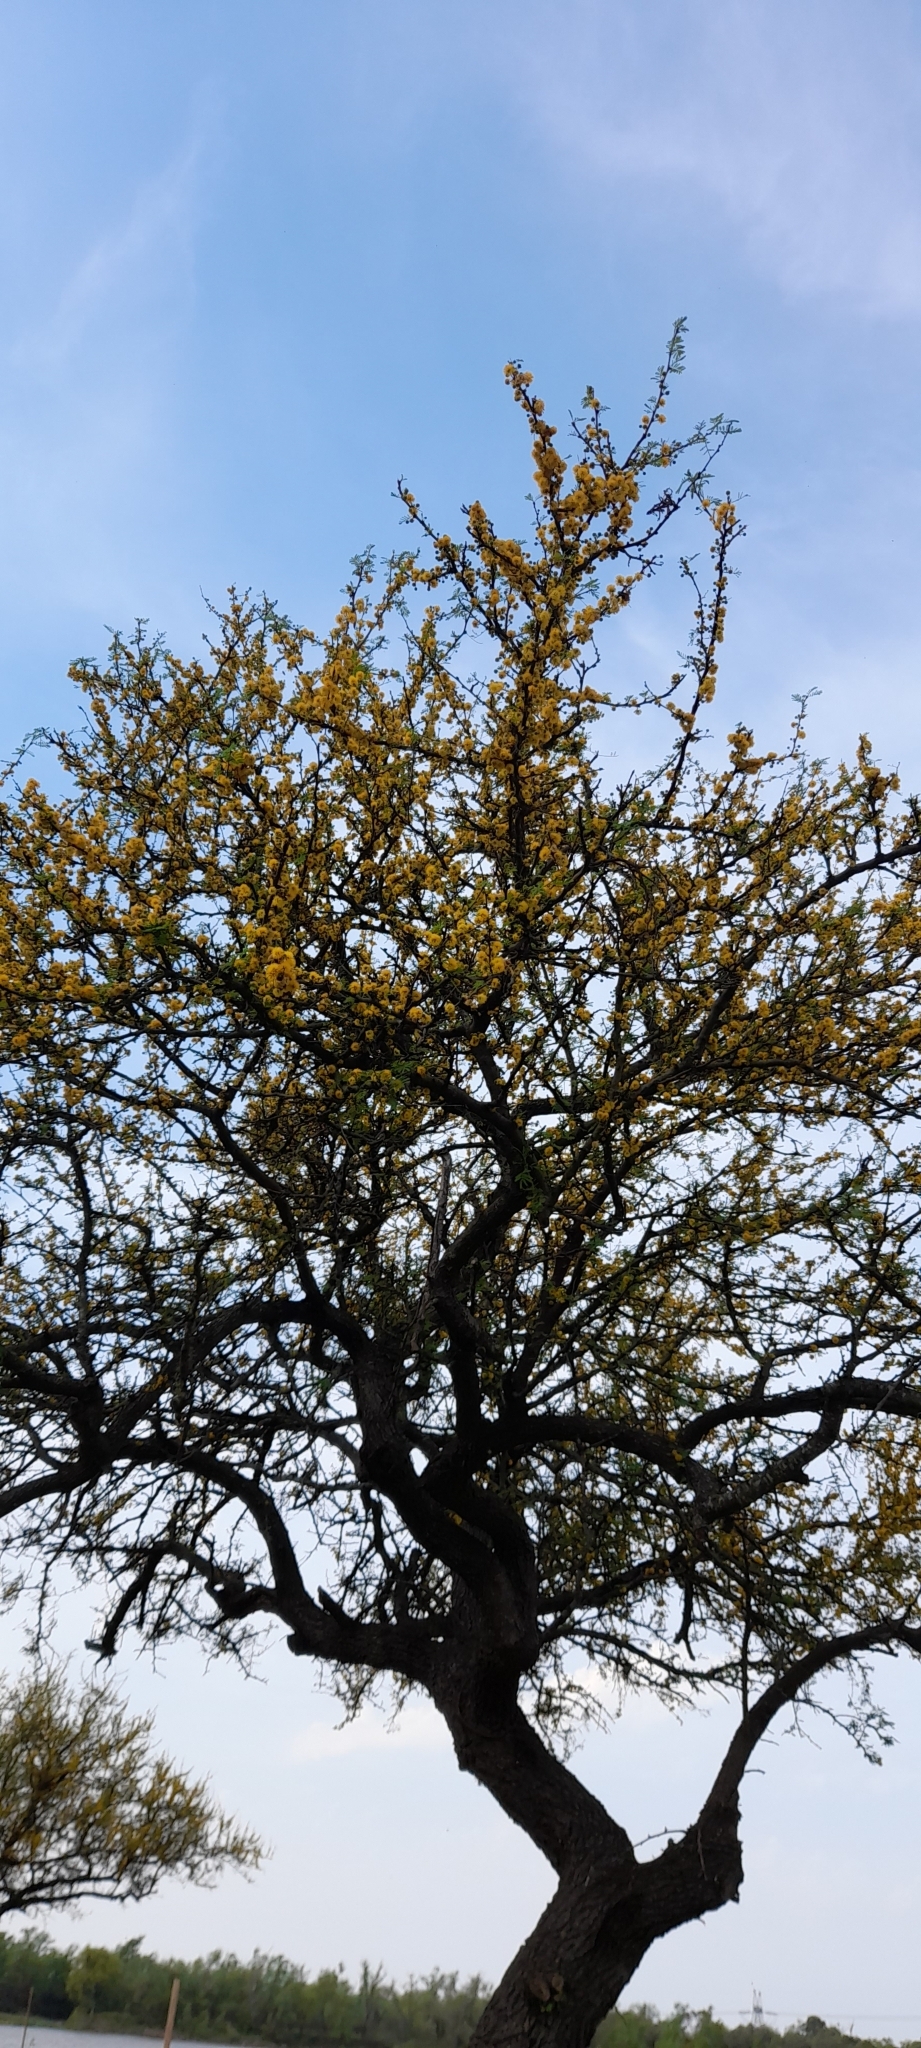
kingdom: Plantae
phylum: Tracheophyta
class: Magnoliopsida
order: Fabales
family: Fabaceae
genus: Vachellia
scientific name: Vachellia caven
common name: Roman cassie
